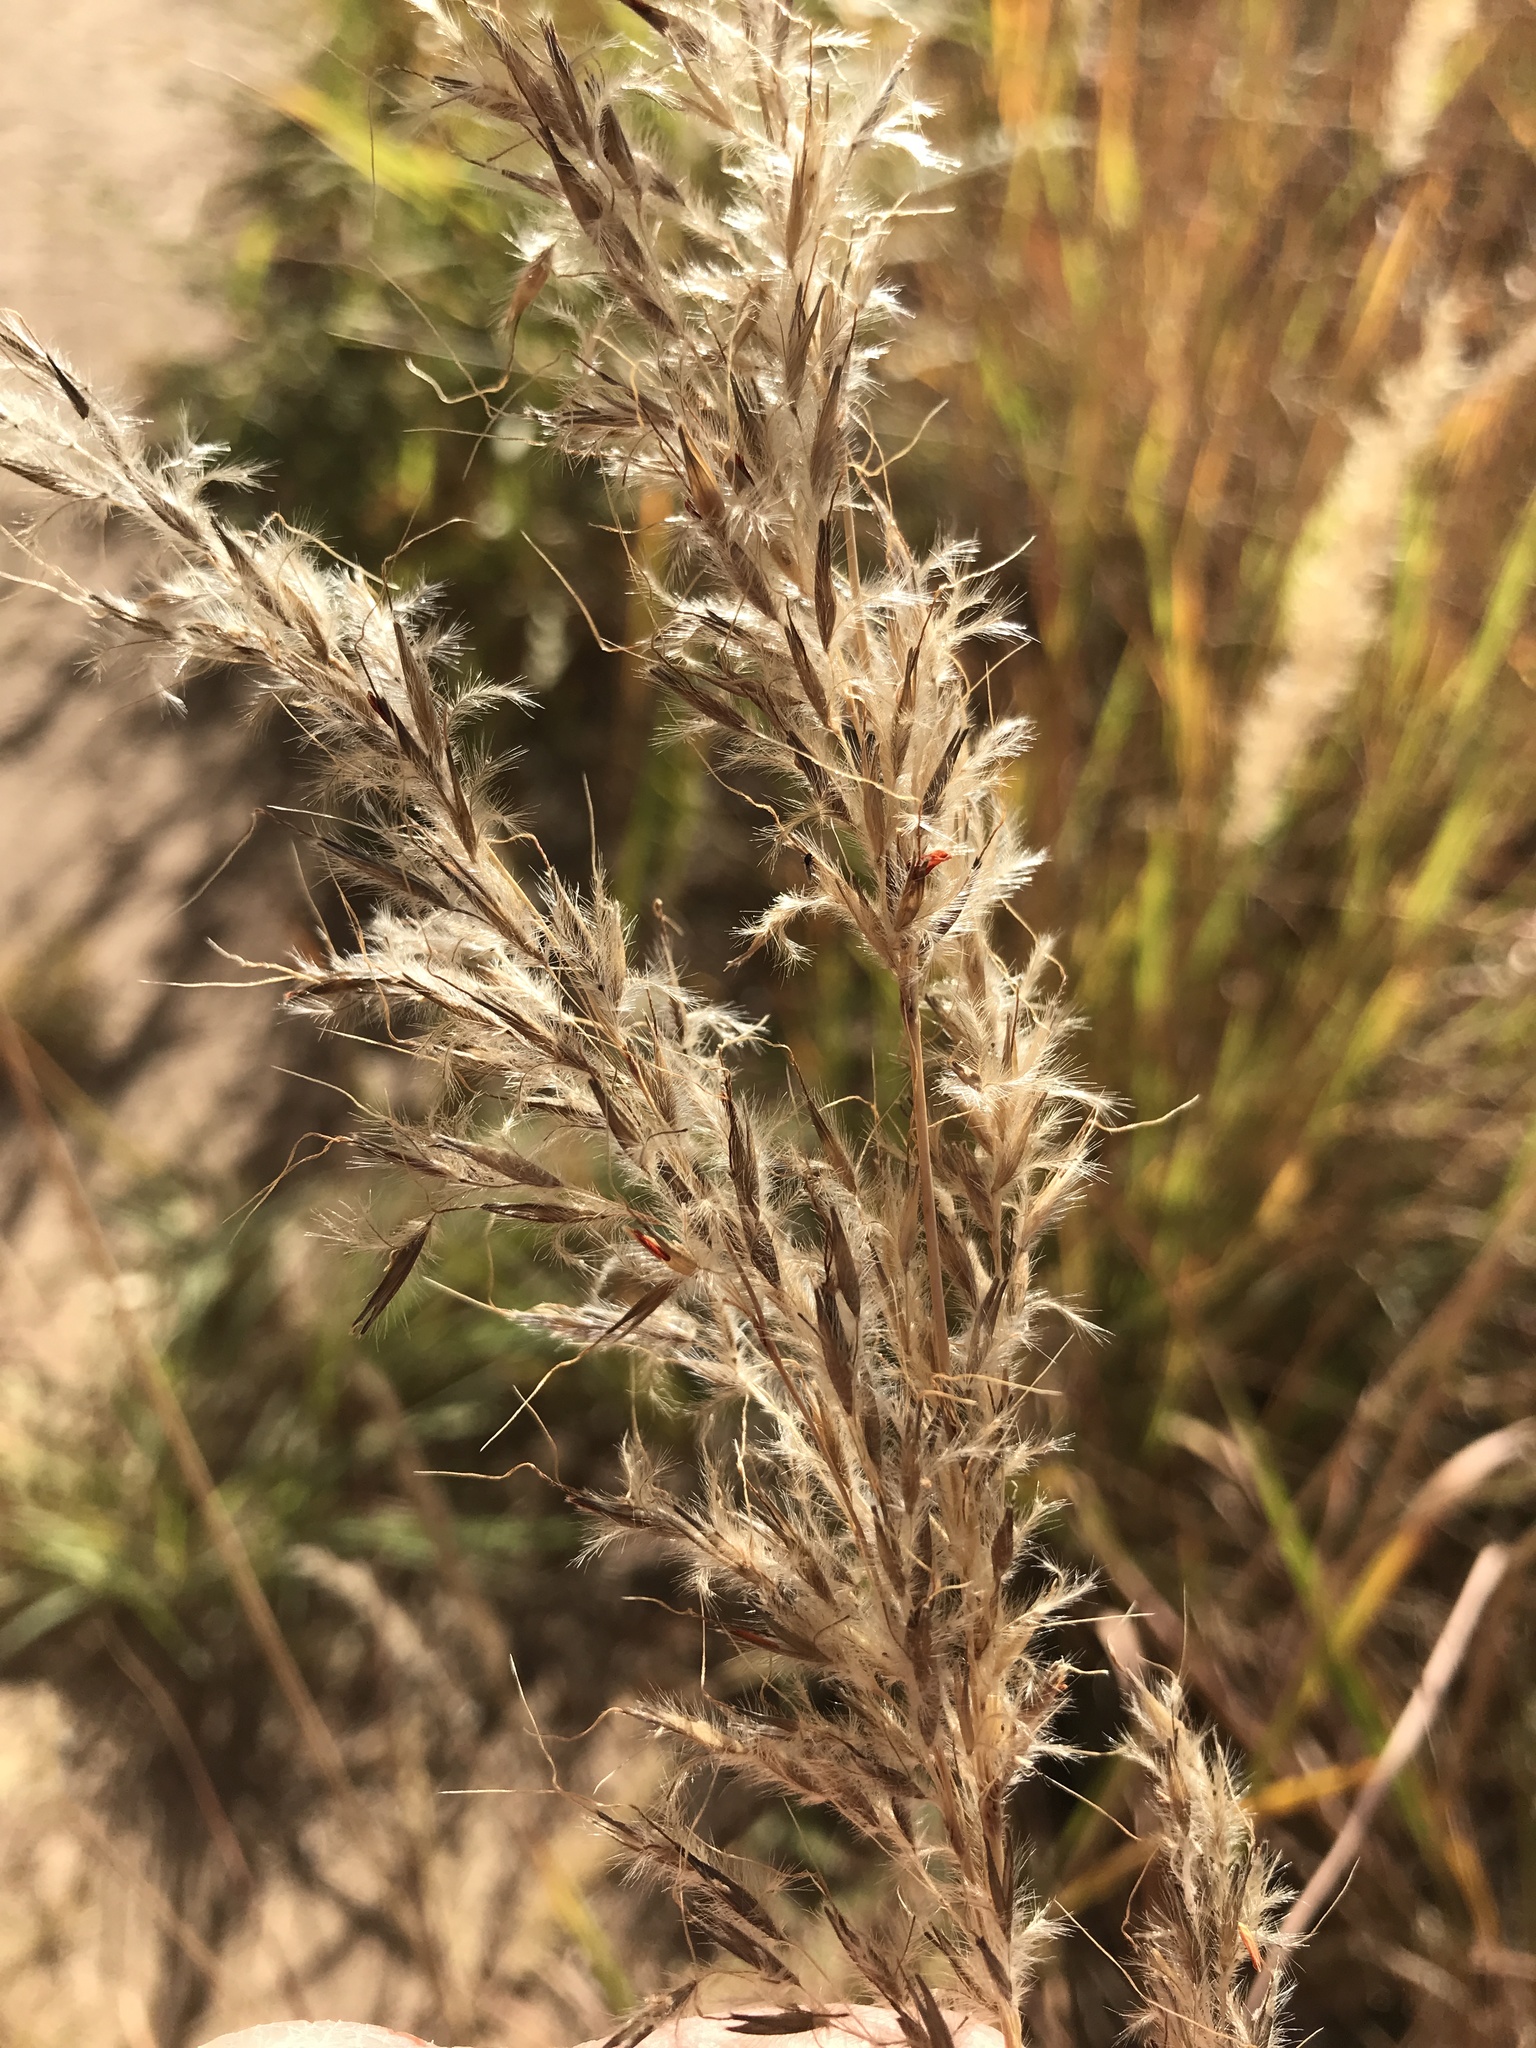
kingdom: Plantae
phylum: Tracheophyta
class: Liliopsida
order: Poales
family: Poaceae
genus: Sorghastrum
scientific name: Sorghastrum nutans
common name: Indian grass
